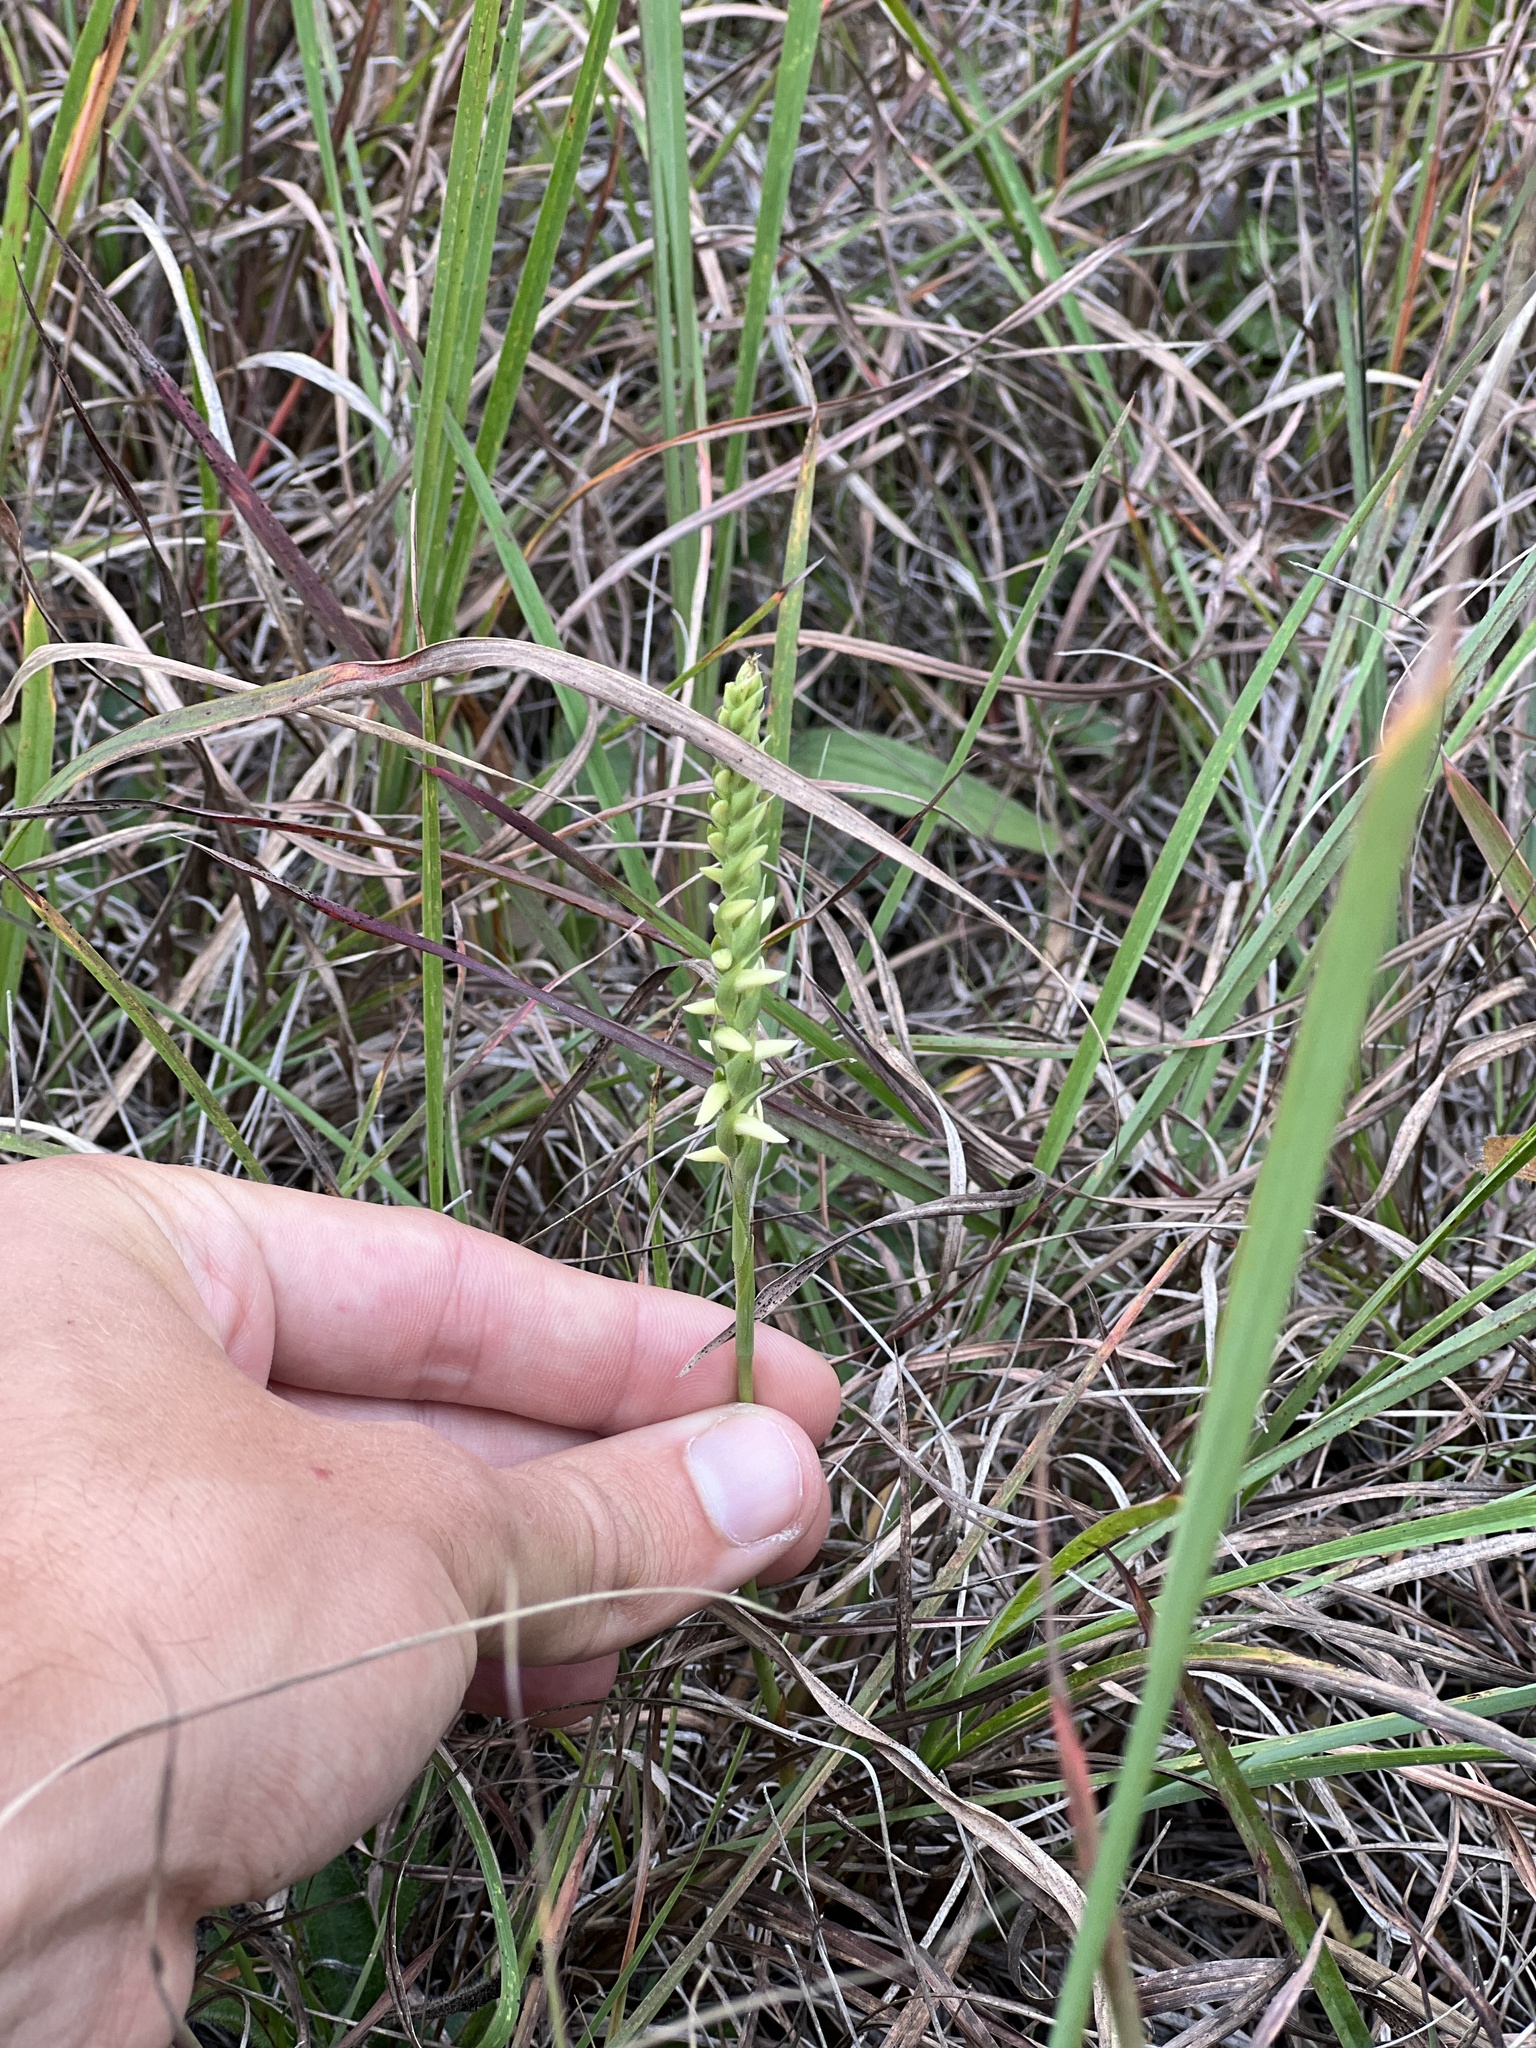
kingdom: Plantae
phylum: Tracheophyta
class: Liliopsida
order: Asparagales
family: Orchidaceae
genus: Spiranthes
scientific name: Spiranthes magnicamporum
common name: Great plains ladies'-tresses
